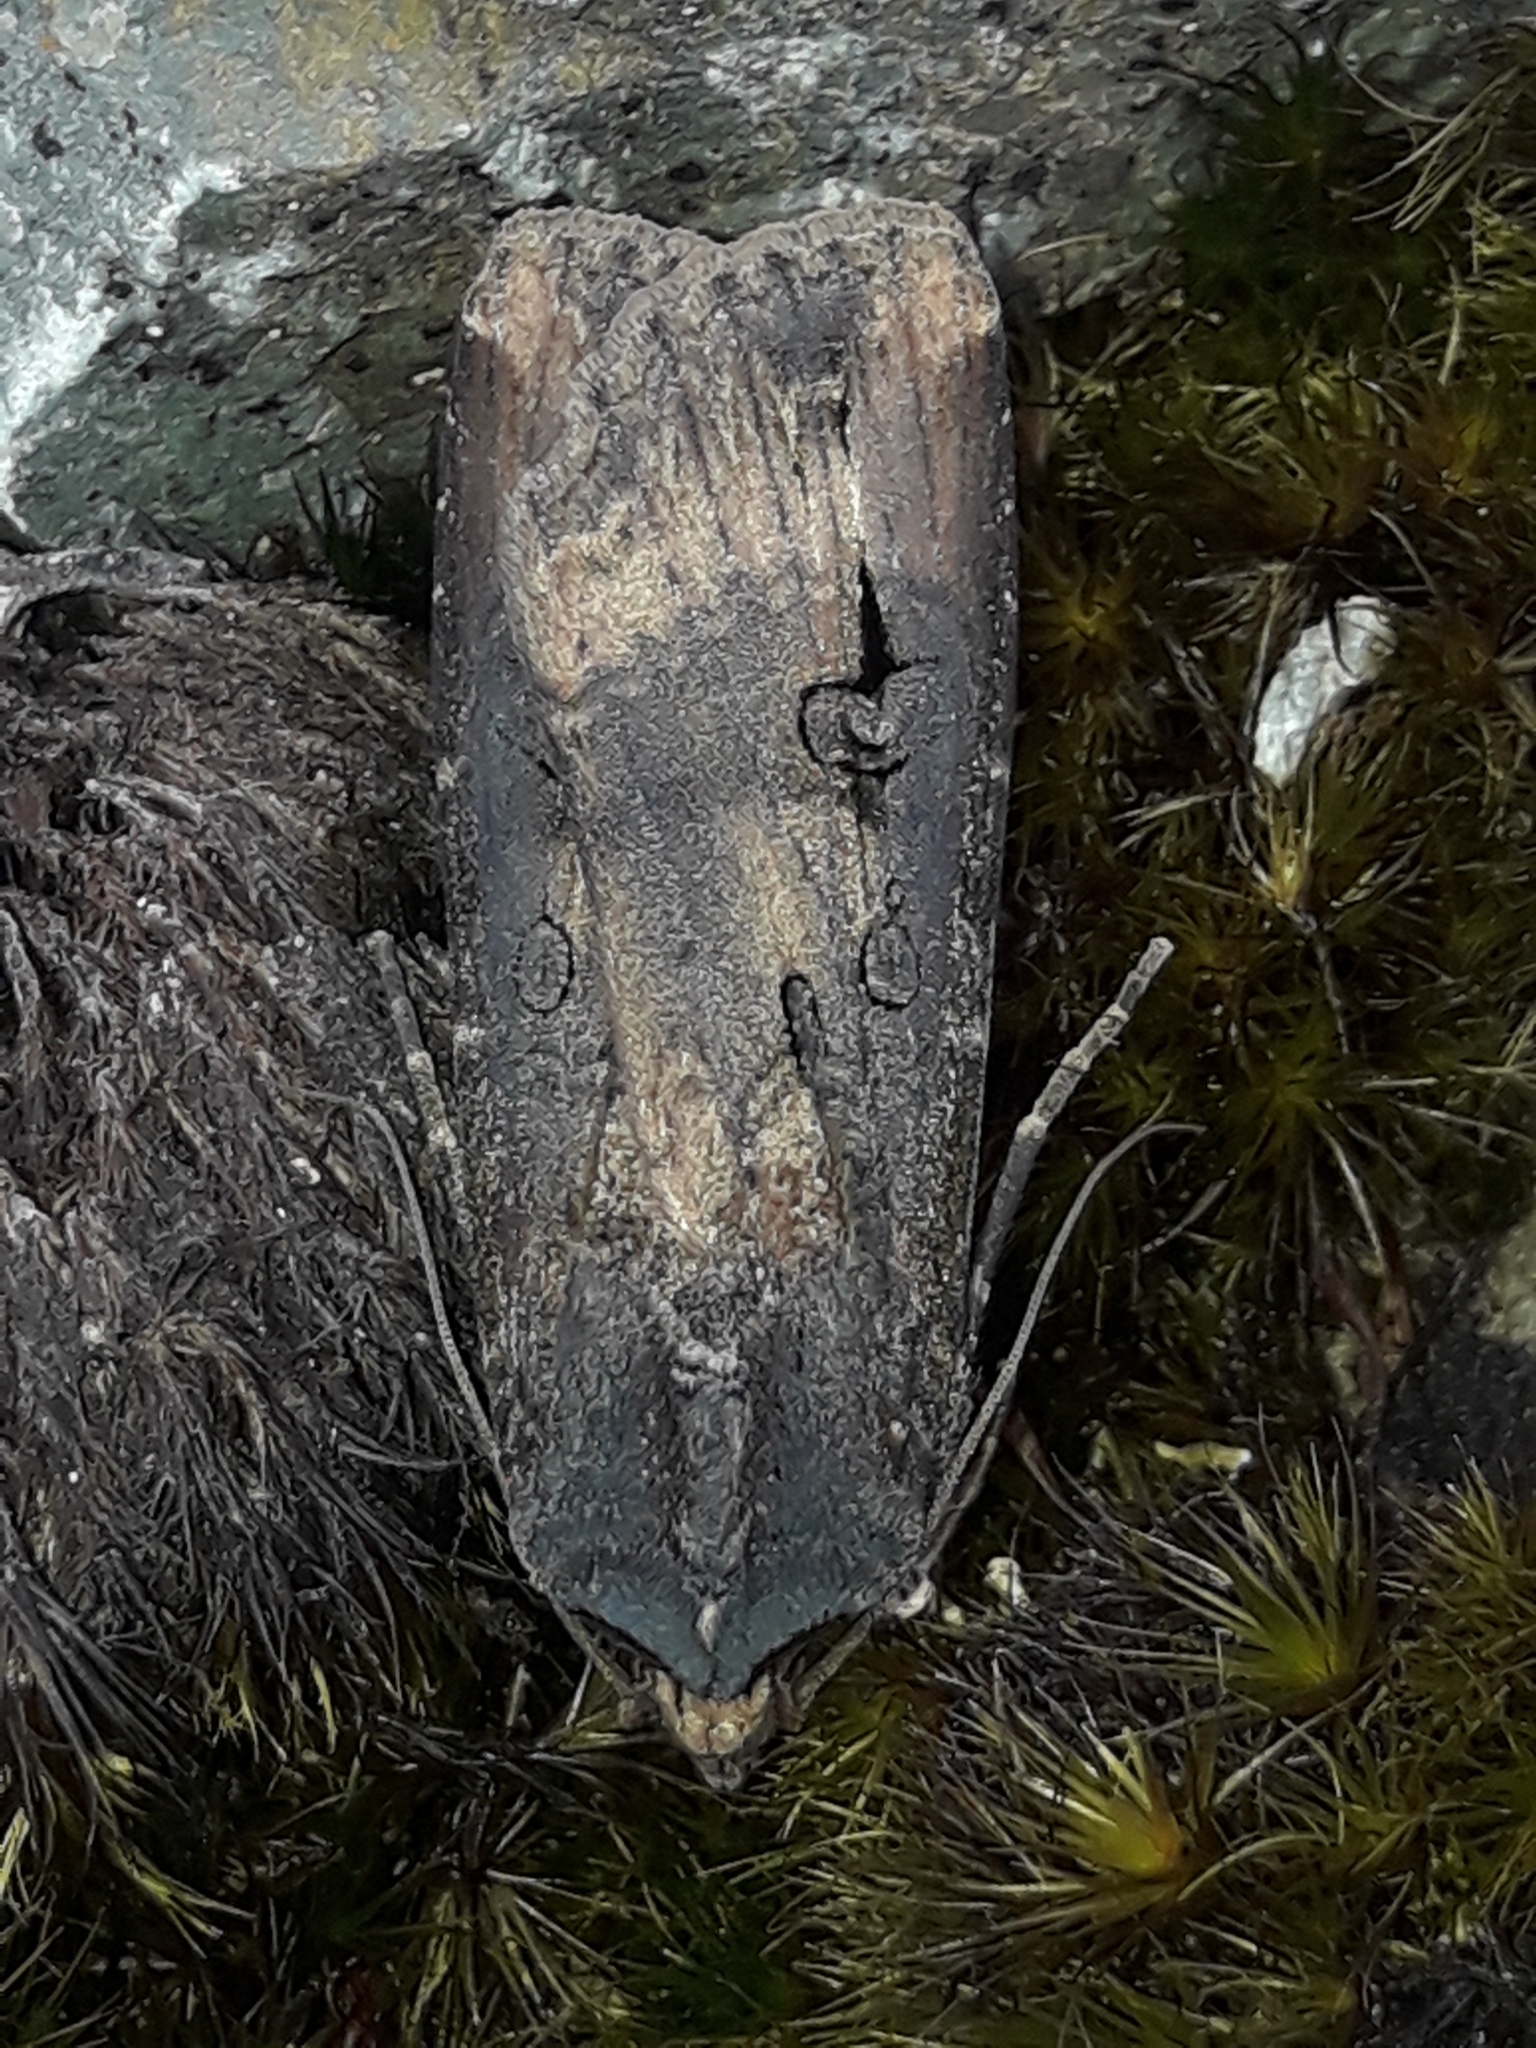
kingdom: Animalia
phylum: Arthropoda
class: Insecta
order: Lepidoptera
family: Noctuidae
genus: Agrotis
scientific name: Agrotis ipsilon
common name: Dark sword-grass
